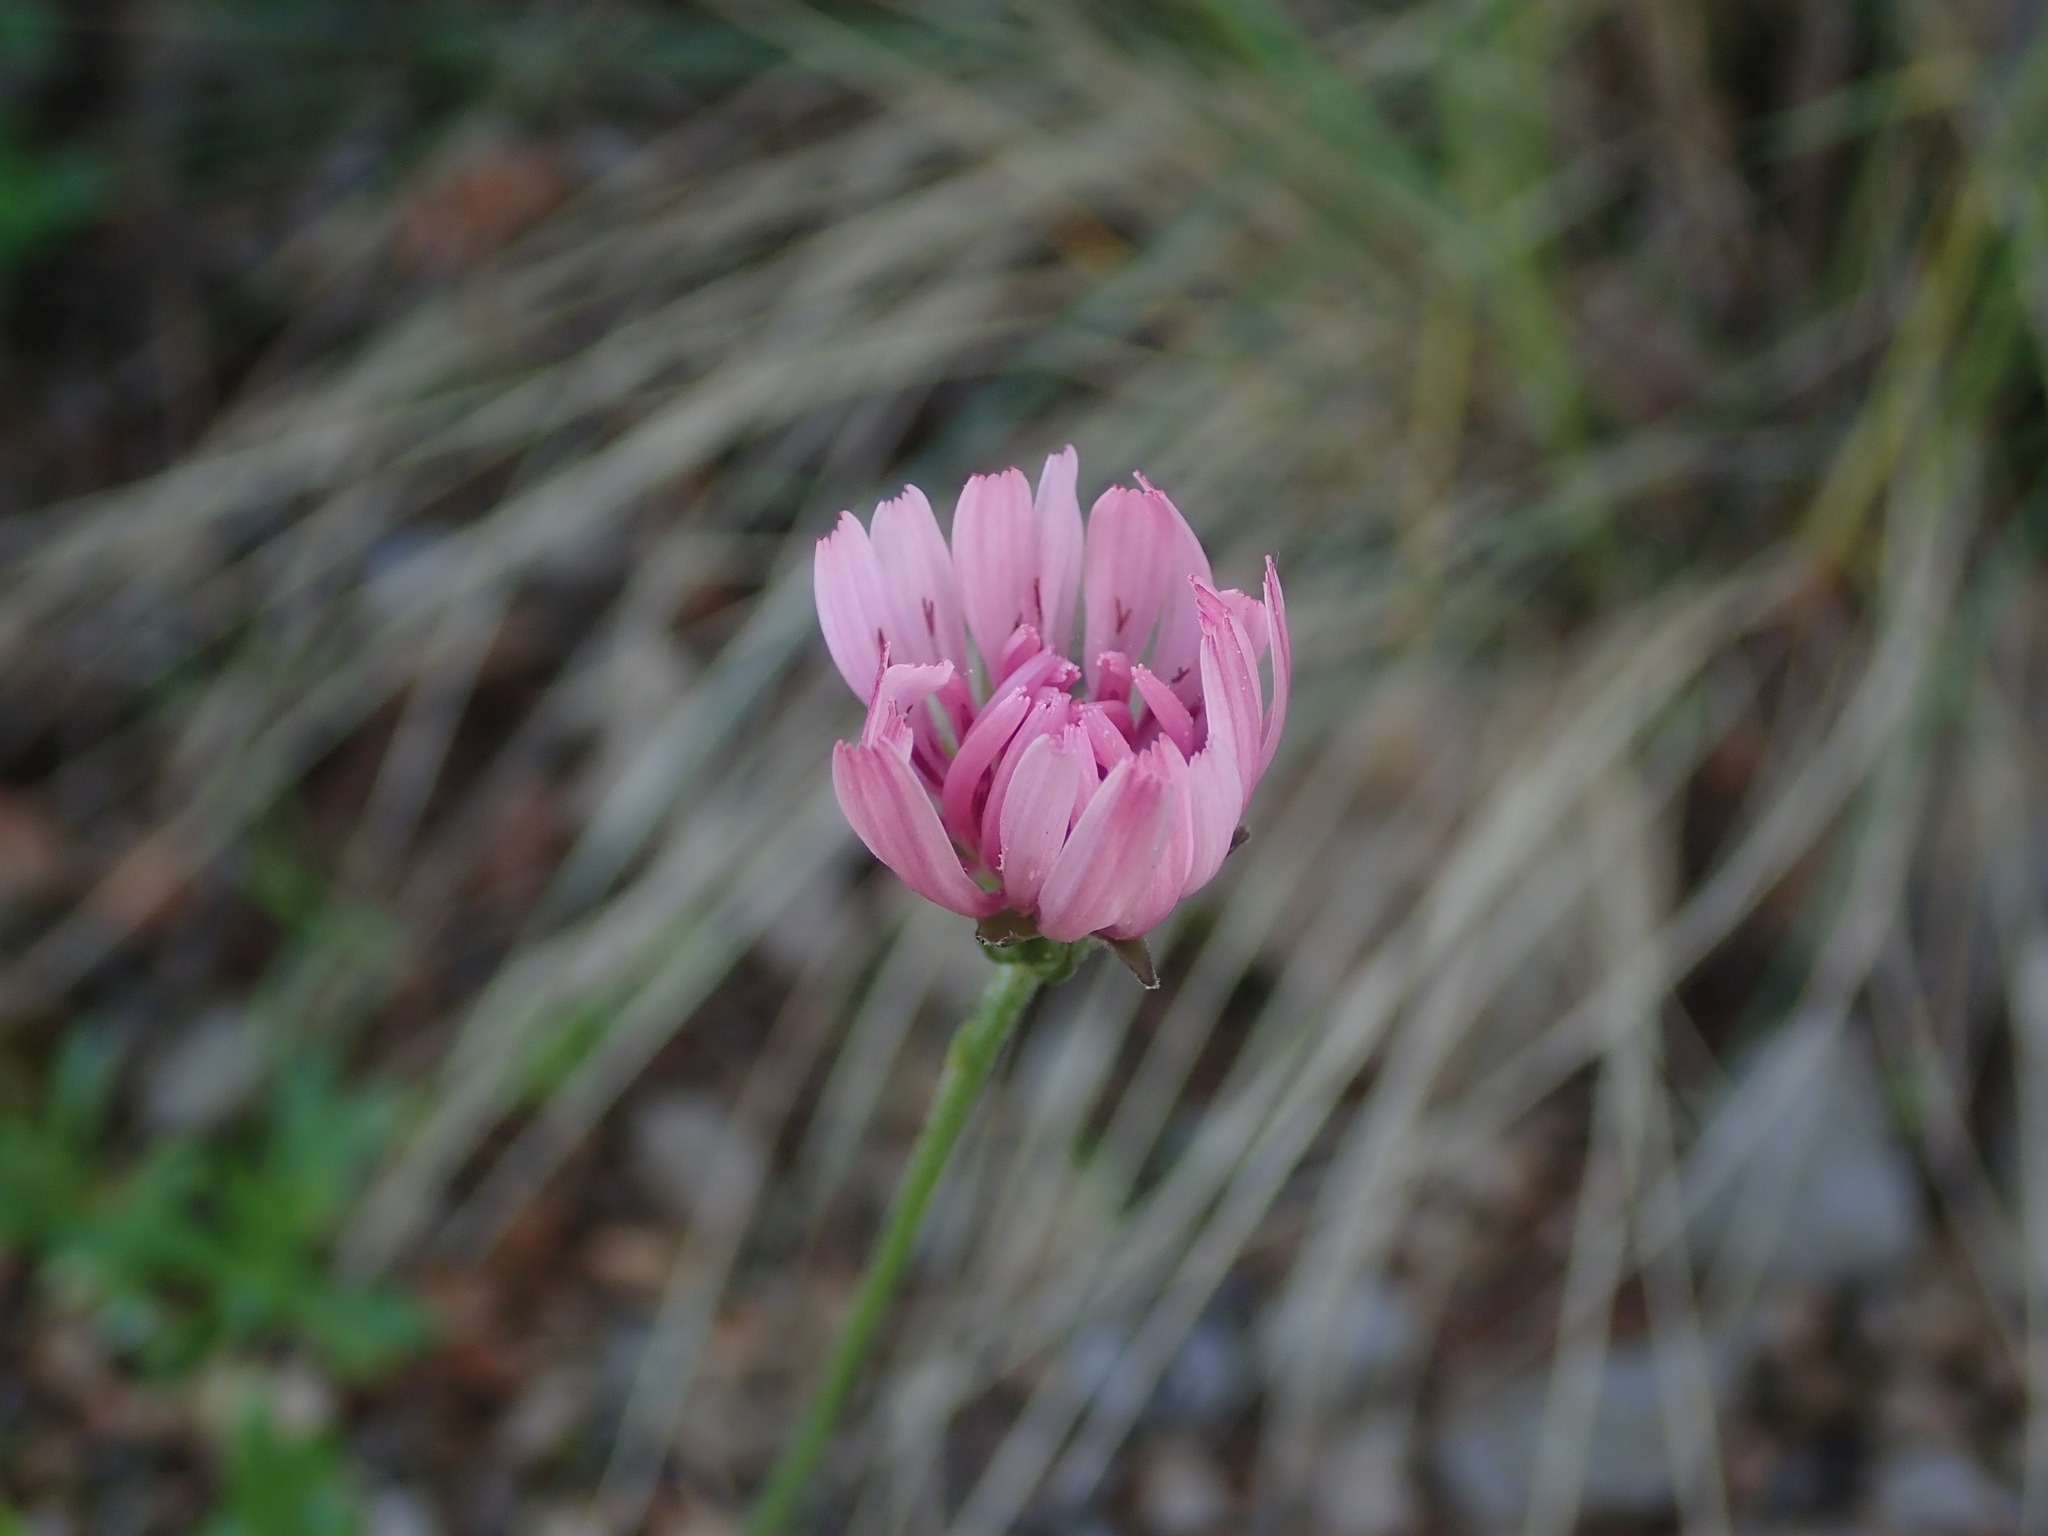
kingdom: Plantae
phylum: Tracheophyta
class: Magnoliopsida
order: Asterales
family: Asteraceae
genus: Crepis
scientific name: Crepis rubra
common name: Pink hawk's-beard
